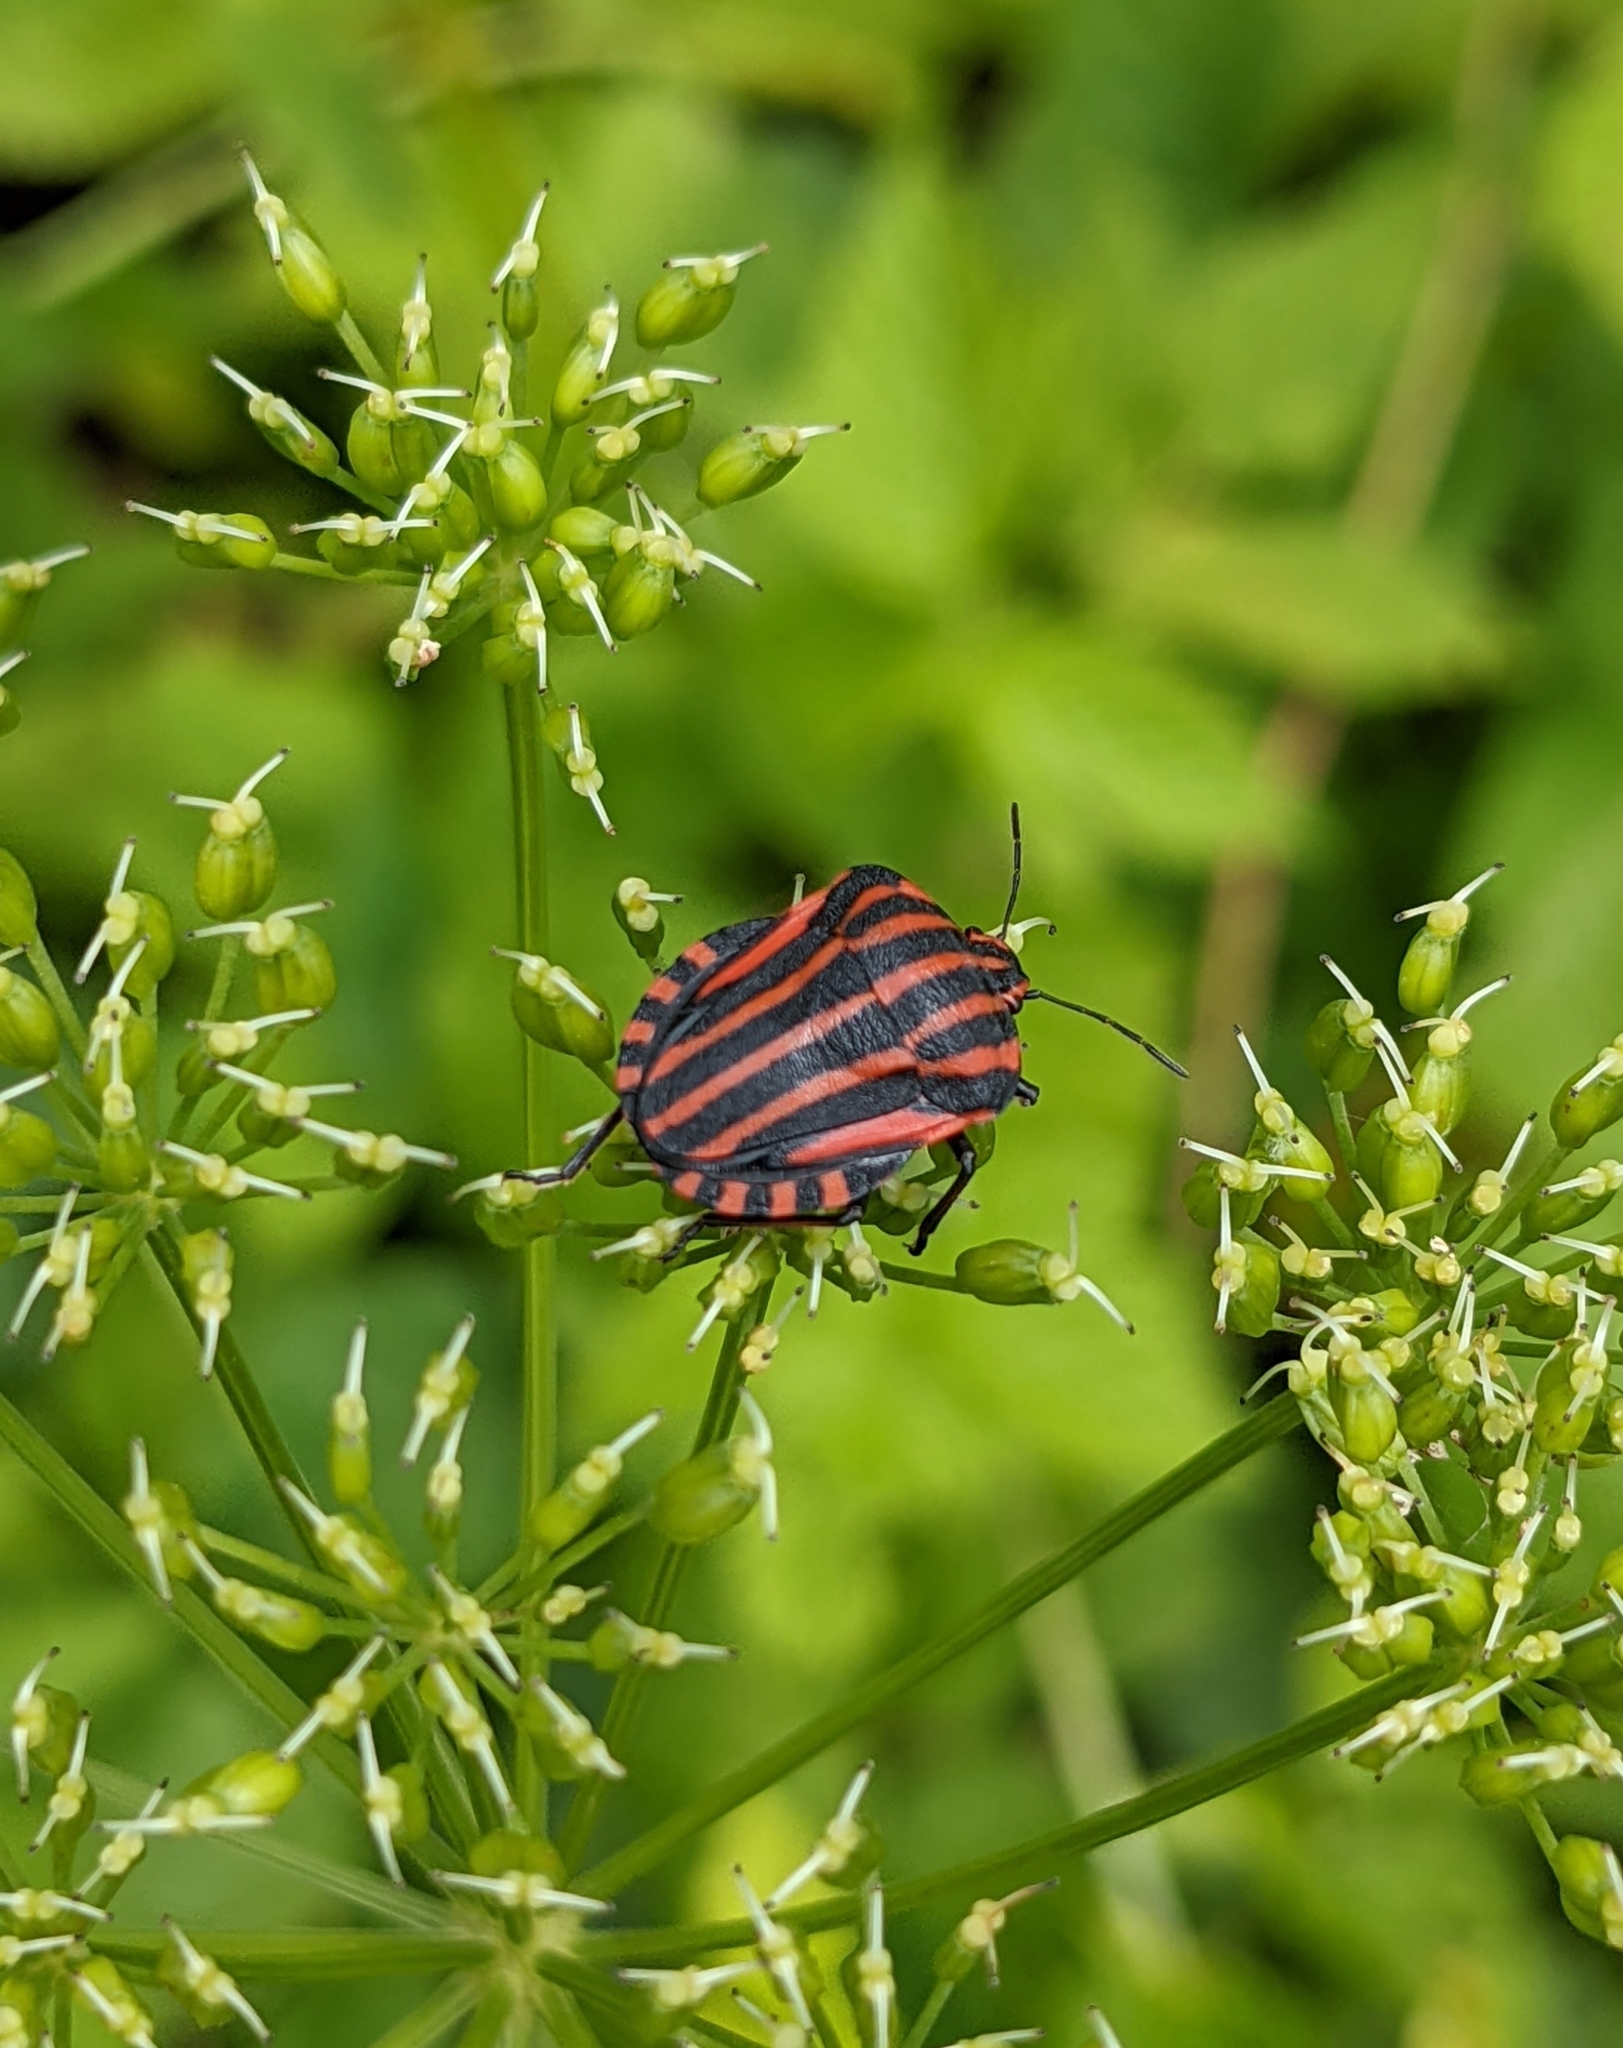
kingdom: Animalia
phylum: Arthropoda
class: Insecta
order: Hemiptera
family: Pentatomidae
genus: Graphosoma
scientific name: Graphosoma italicum
